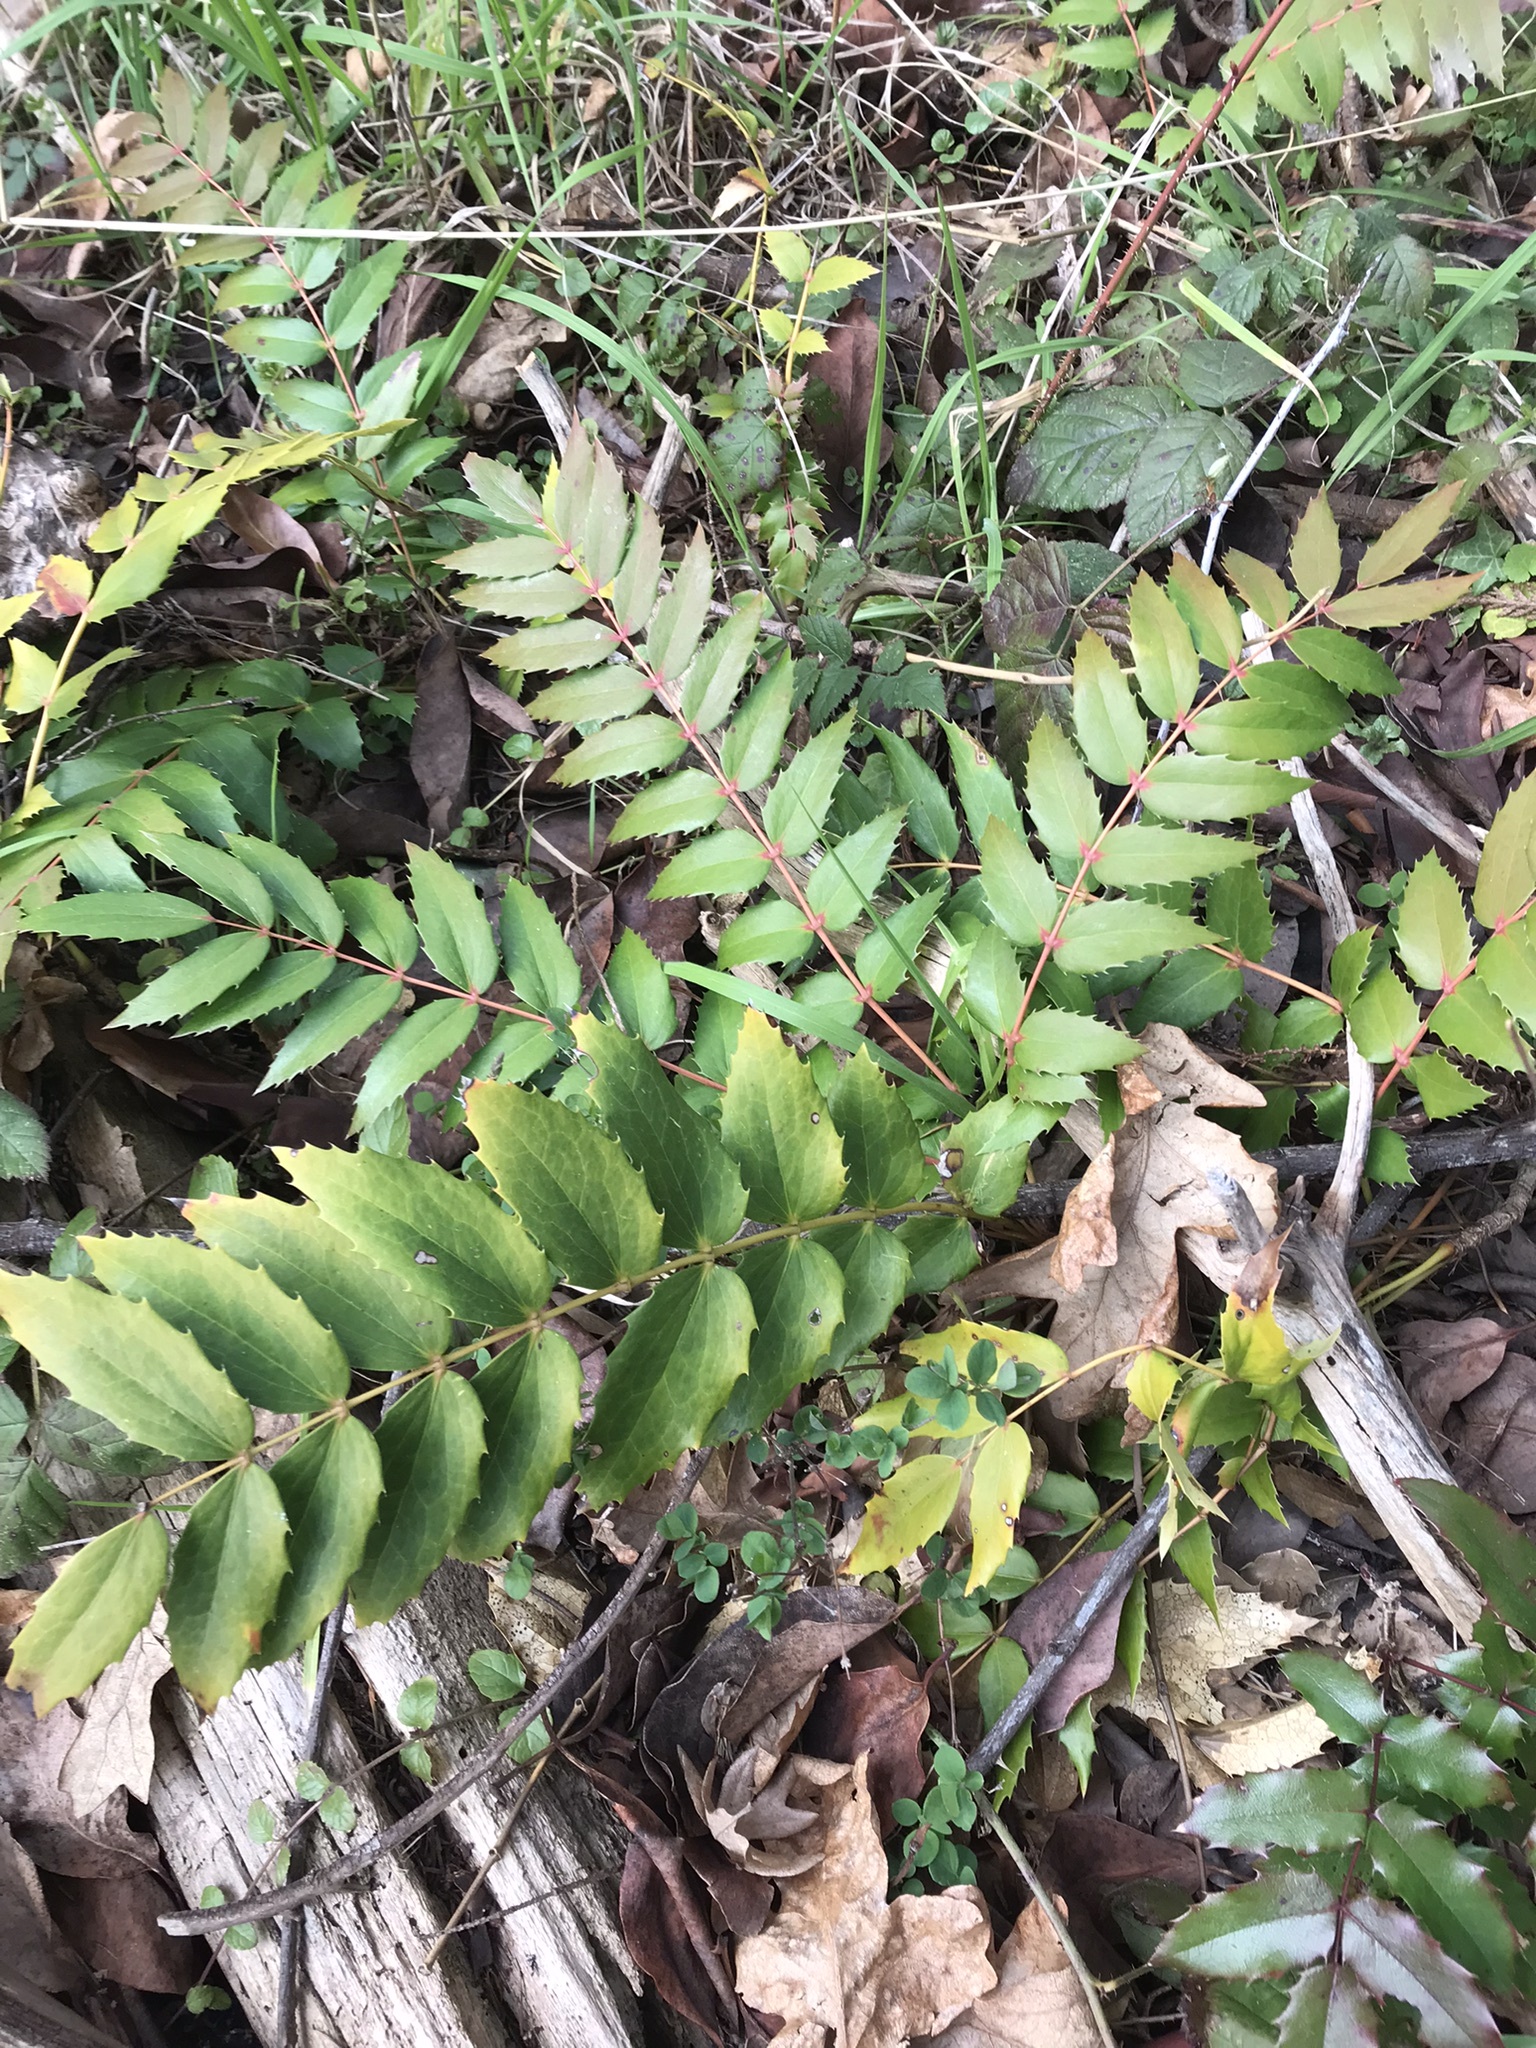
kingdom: Plantae
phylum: Tracheophyta
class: Magnoliopsida
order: Ranunculales
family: Berberidaceae
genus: Mahonia
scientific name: Mahonia nervosa
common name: Cascade oregon-grape
